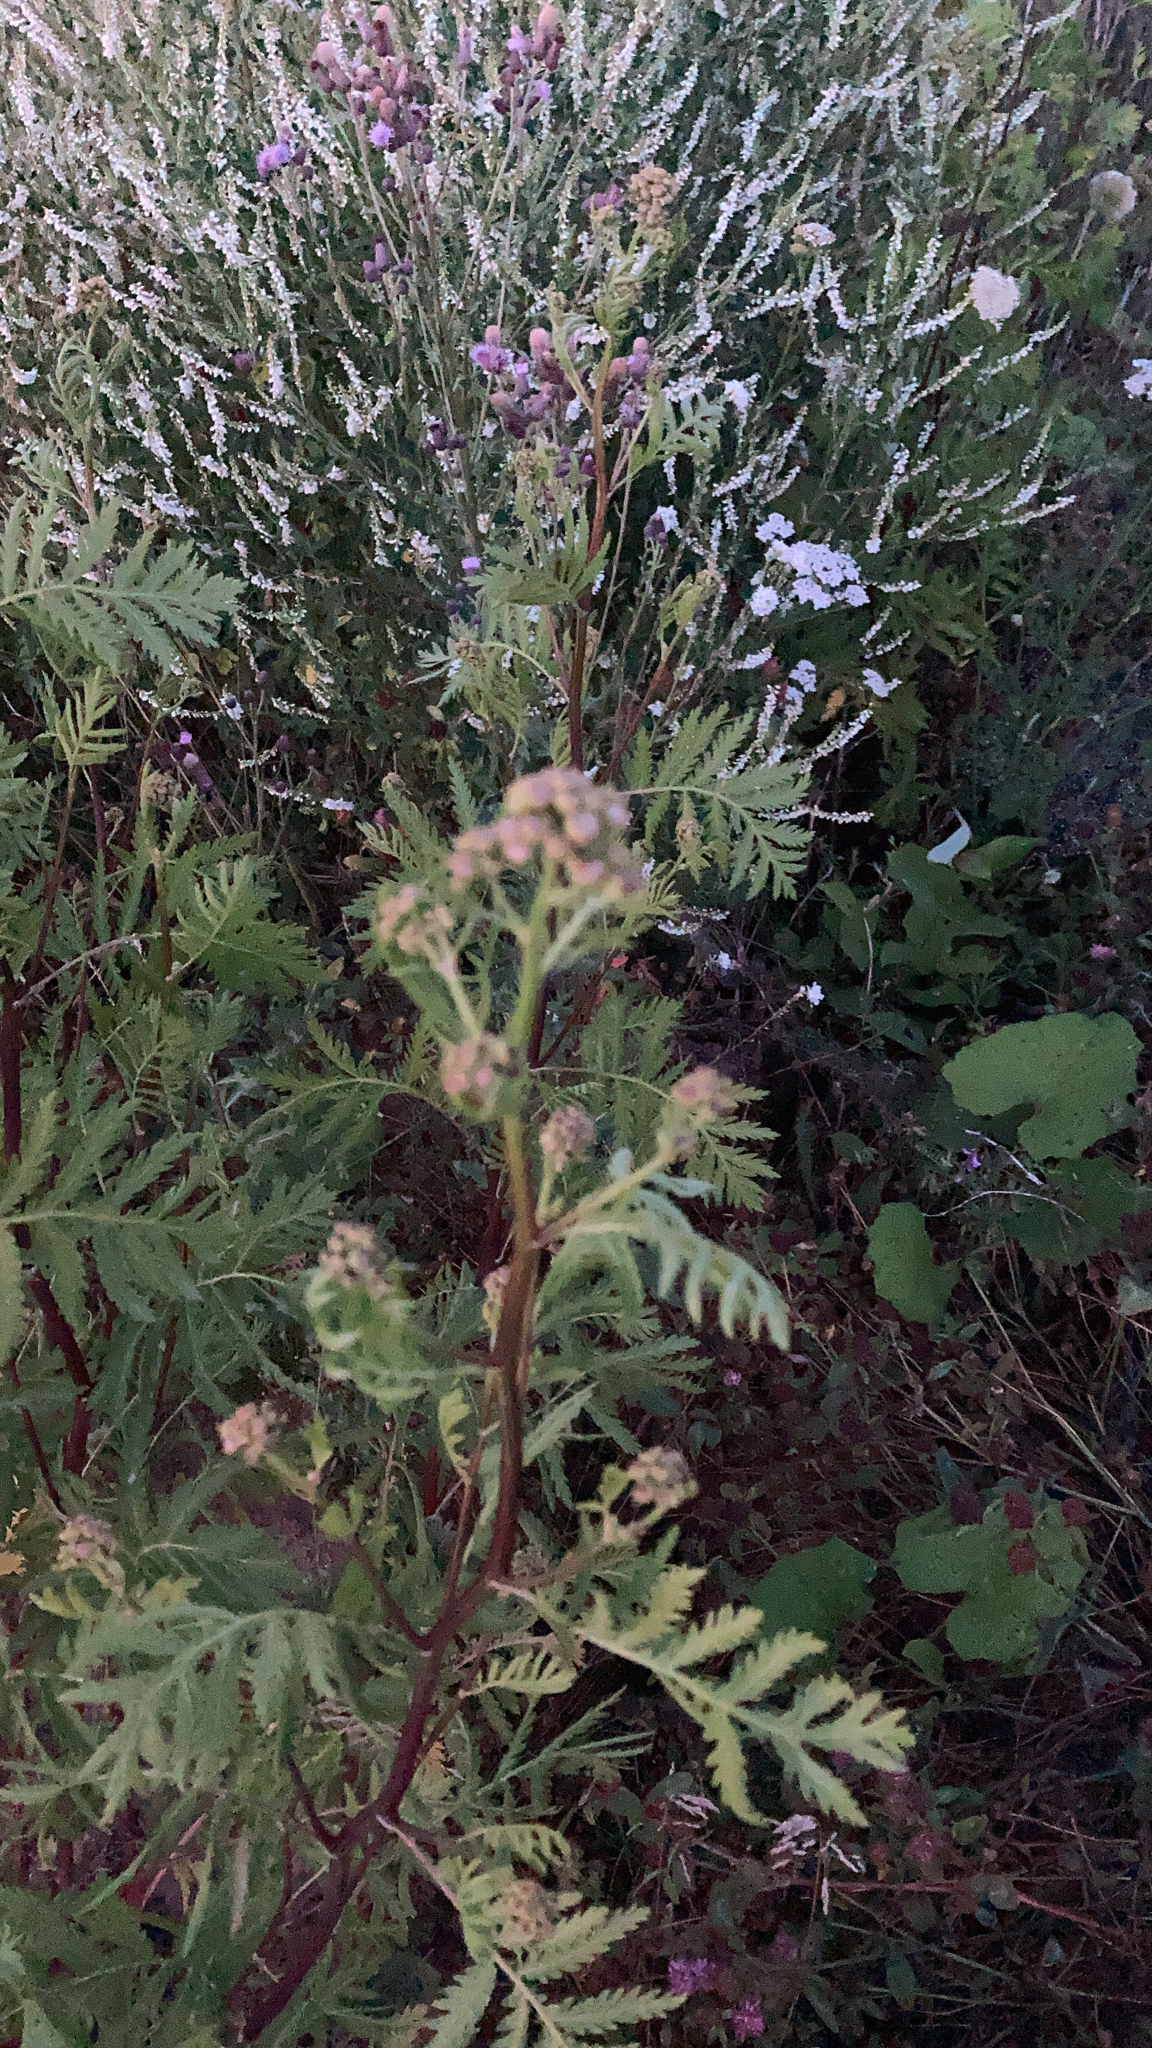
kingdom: Plantae
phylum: Tracheophyta
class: Magnoliopsida
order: Asterales
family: Asteraceae
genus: Tanacetum
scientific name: Tanacetum vulgare
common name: Common tansy
